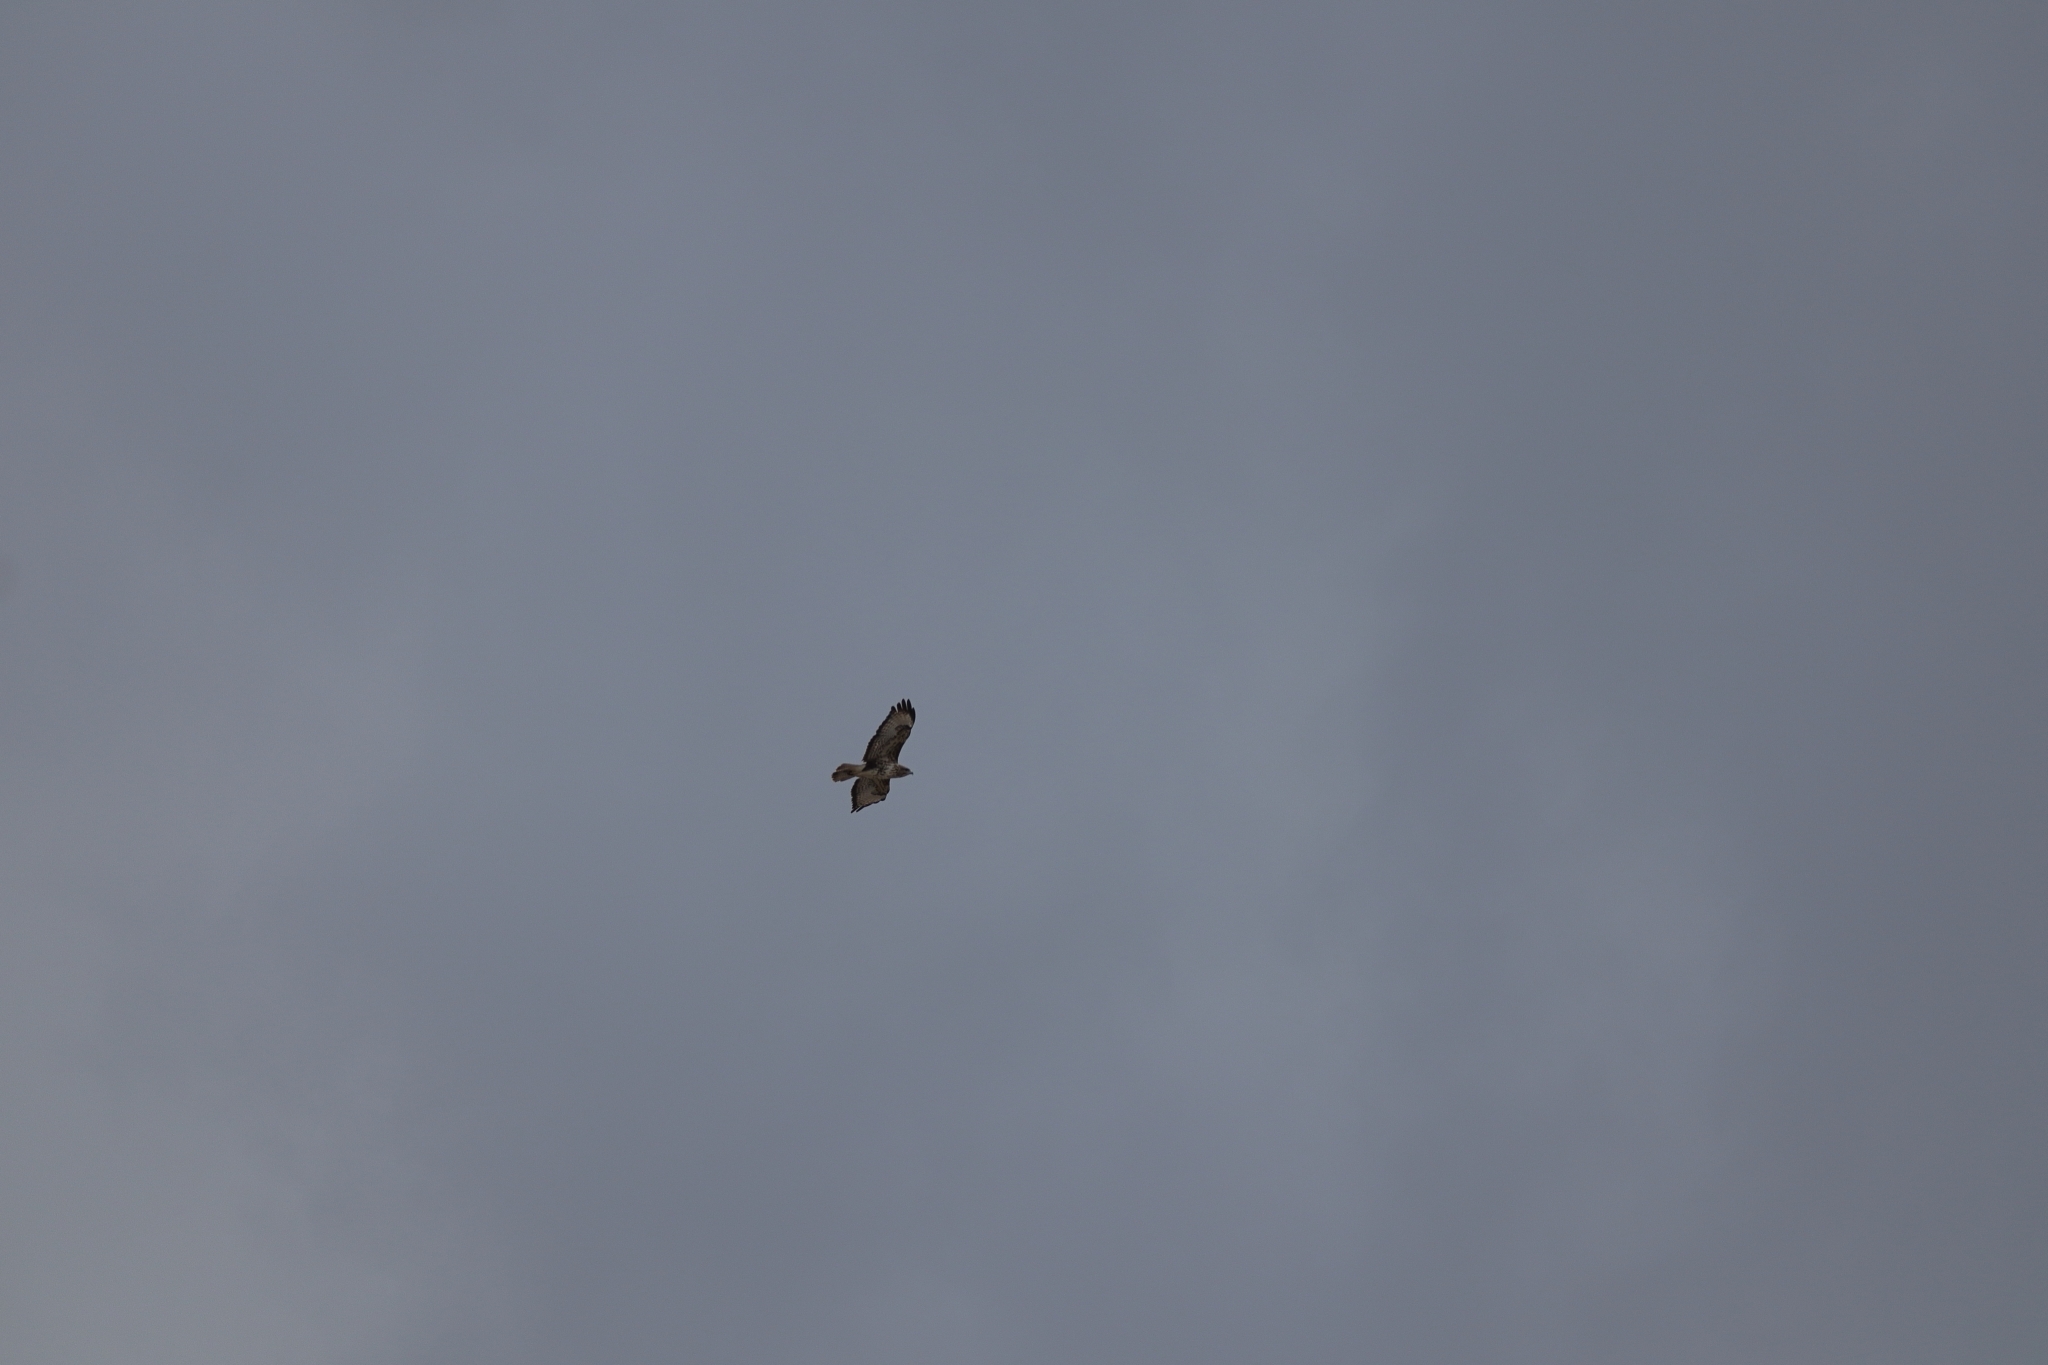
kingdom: Animalia
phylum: Chordata
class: Aves
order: Accipitriformes
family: Accipitridae
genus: Buteo
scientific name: Buteo buteo
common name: Common buzzard
